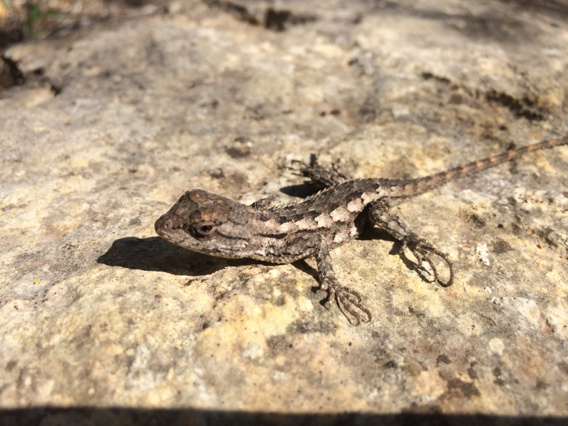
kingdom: Animalia
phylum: Chordata
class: Squamata
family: Phrynosomatidae
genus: Sceloporus
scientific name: Sceloporus olivaceus
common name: Texas spiny lizard
